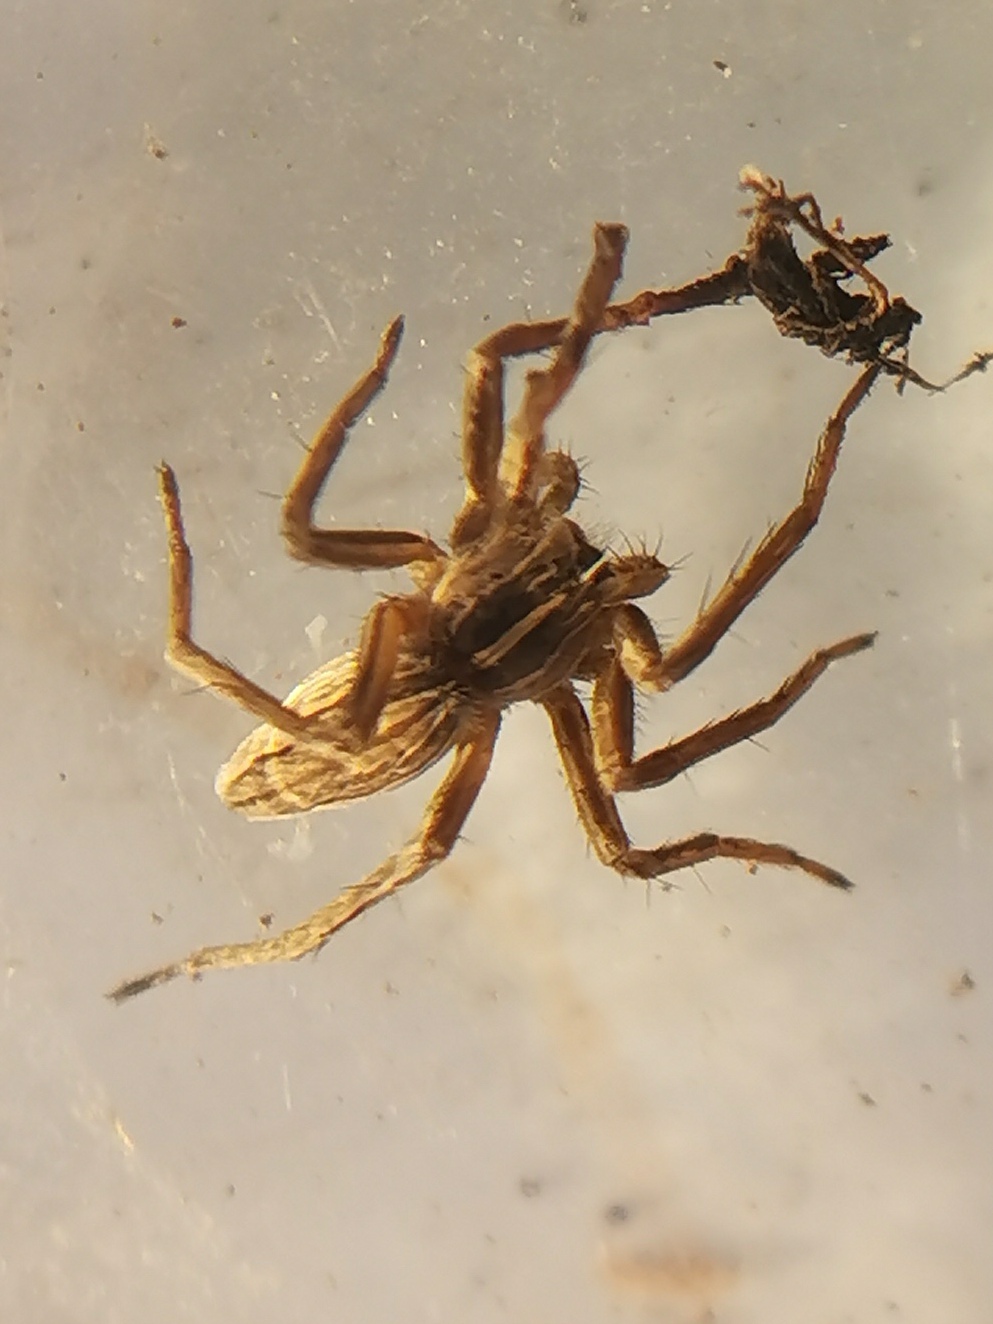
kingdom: Animalia
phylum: Arthropoda
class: Arachnida
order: Araneae
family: Pisauridae
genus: Pisaura
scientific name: Pisaura
